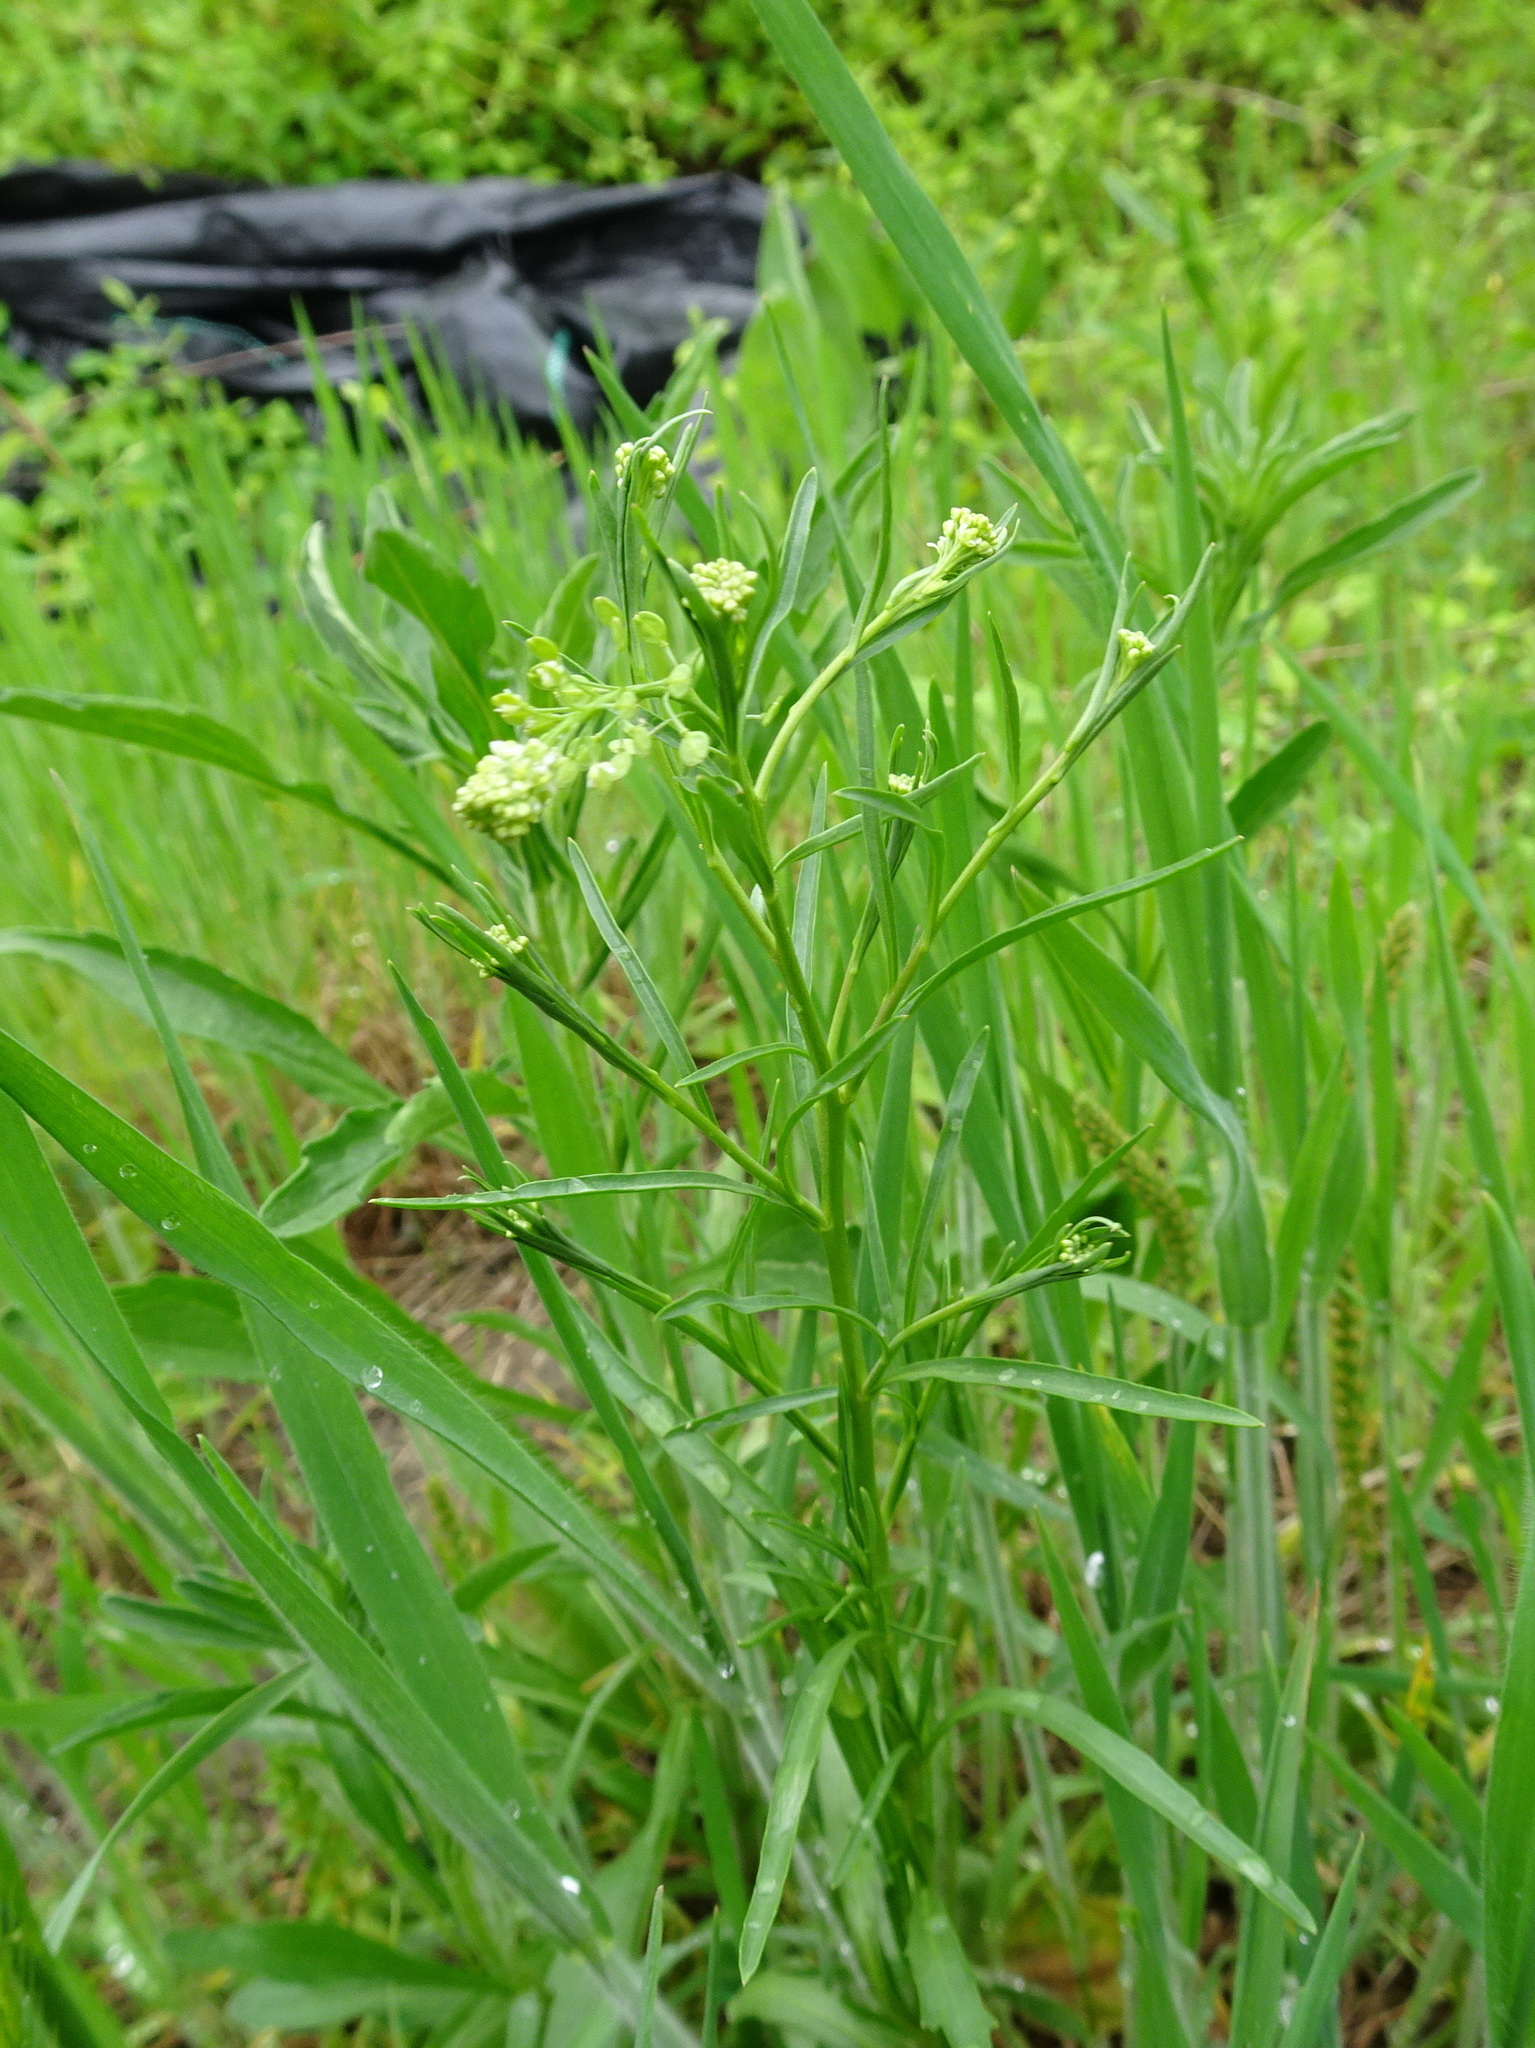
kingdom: Plantae
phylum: Tracheophyta
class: Magnoliopsida
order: Brassicales
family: Brassicaceae
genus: Lepidium
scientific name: Lepidium virginicum
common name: Least pepperwort
